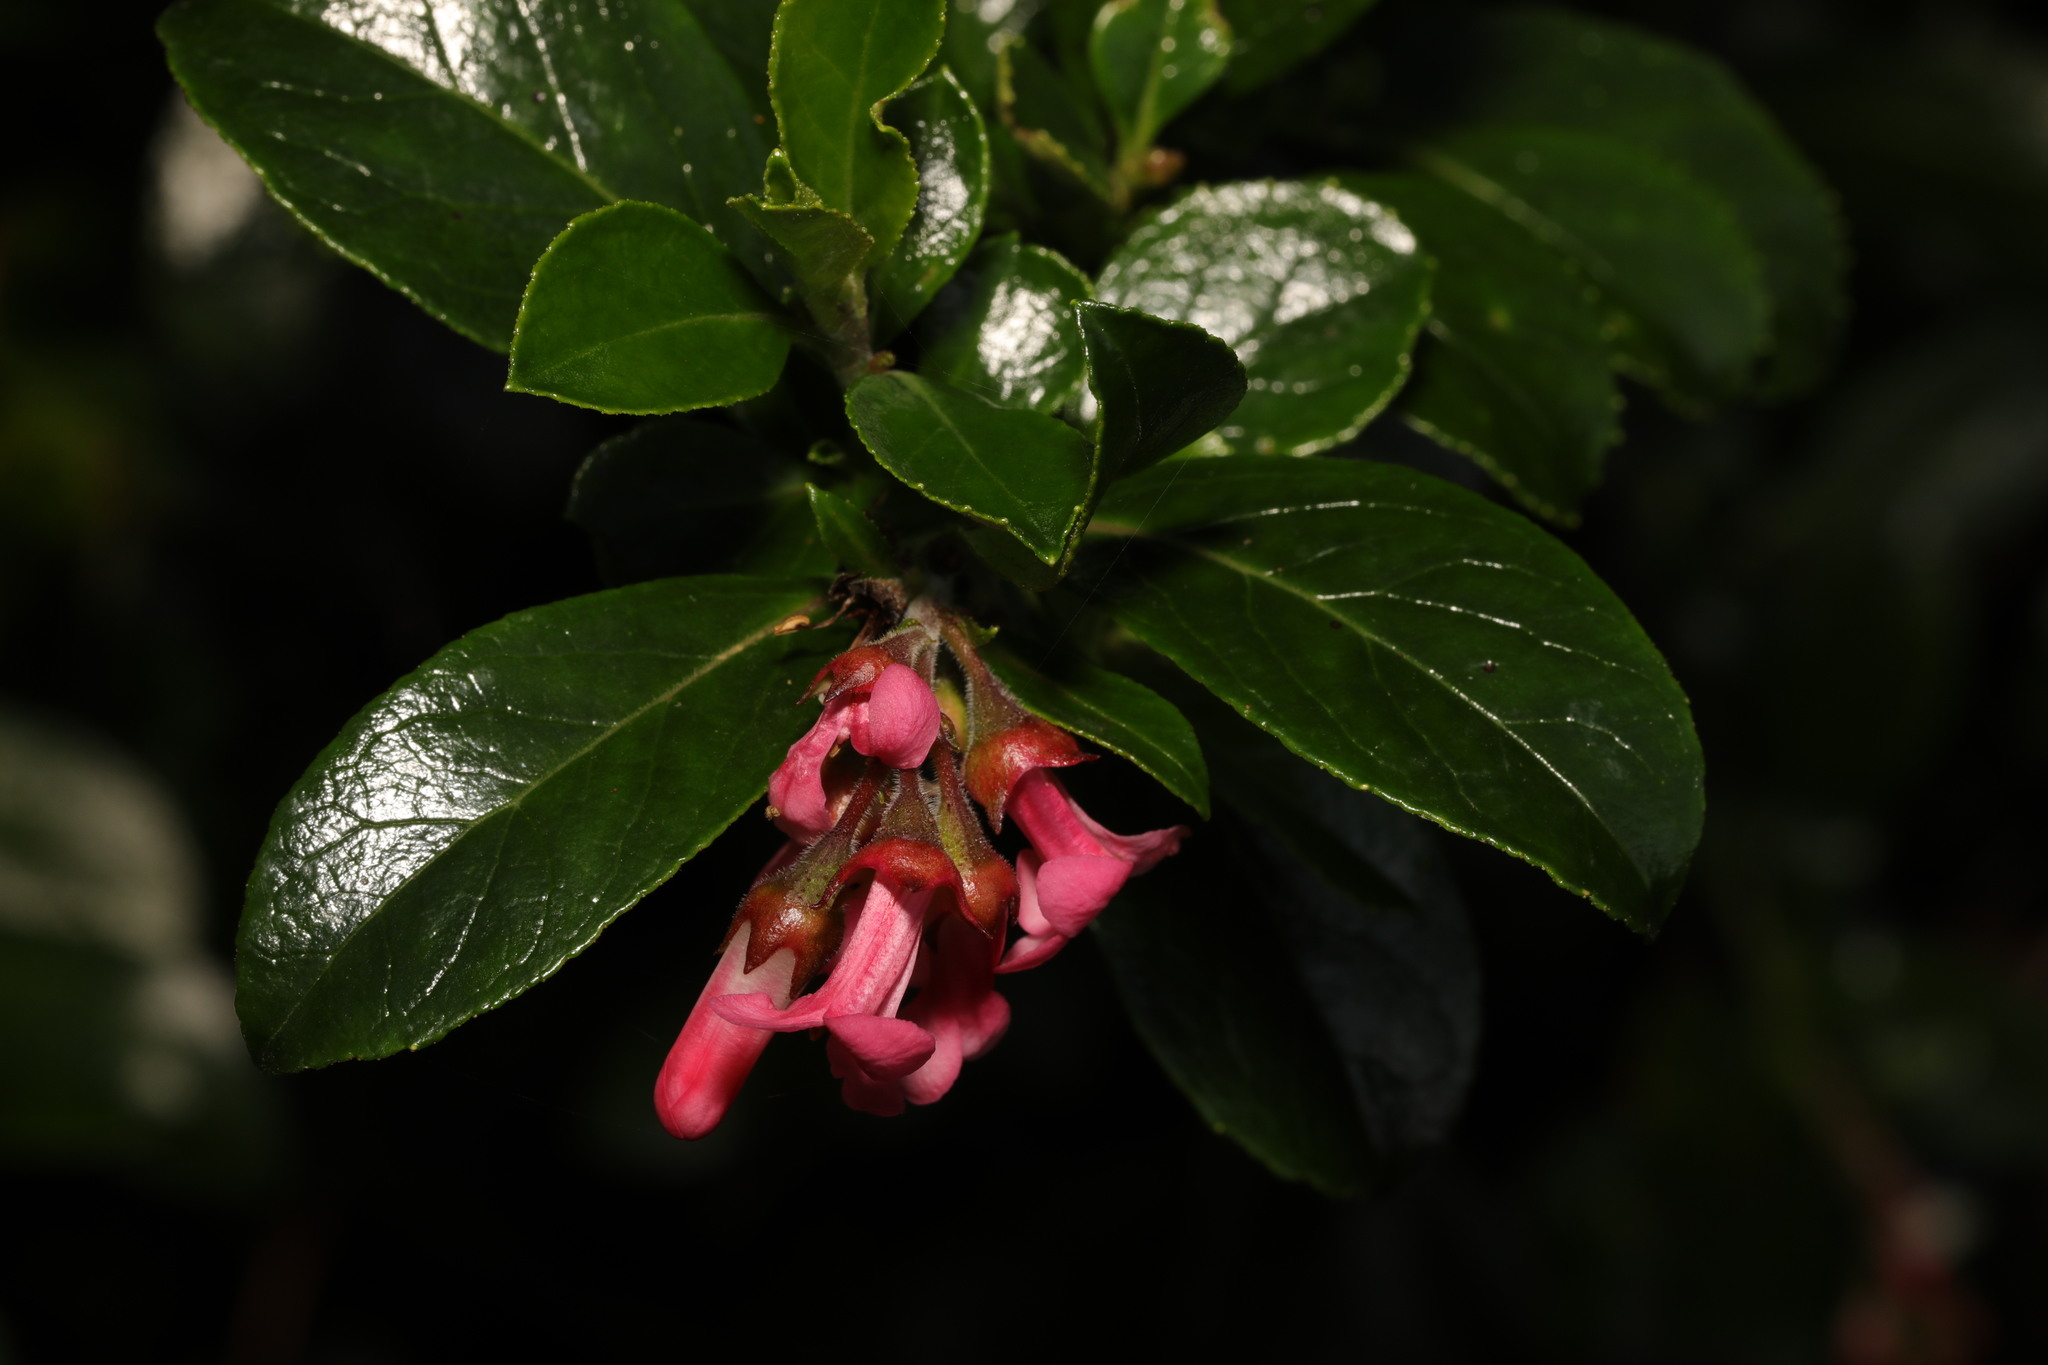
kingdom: Plantae
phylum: Tracheophyta
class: Magnoliopsida
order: Escalloniales
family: Escalloniaceae
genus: Escallonia
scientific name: Escallonia rubra
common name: Redclaws
